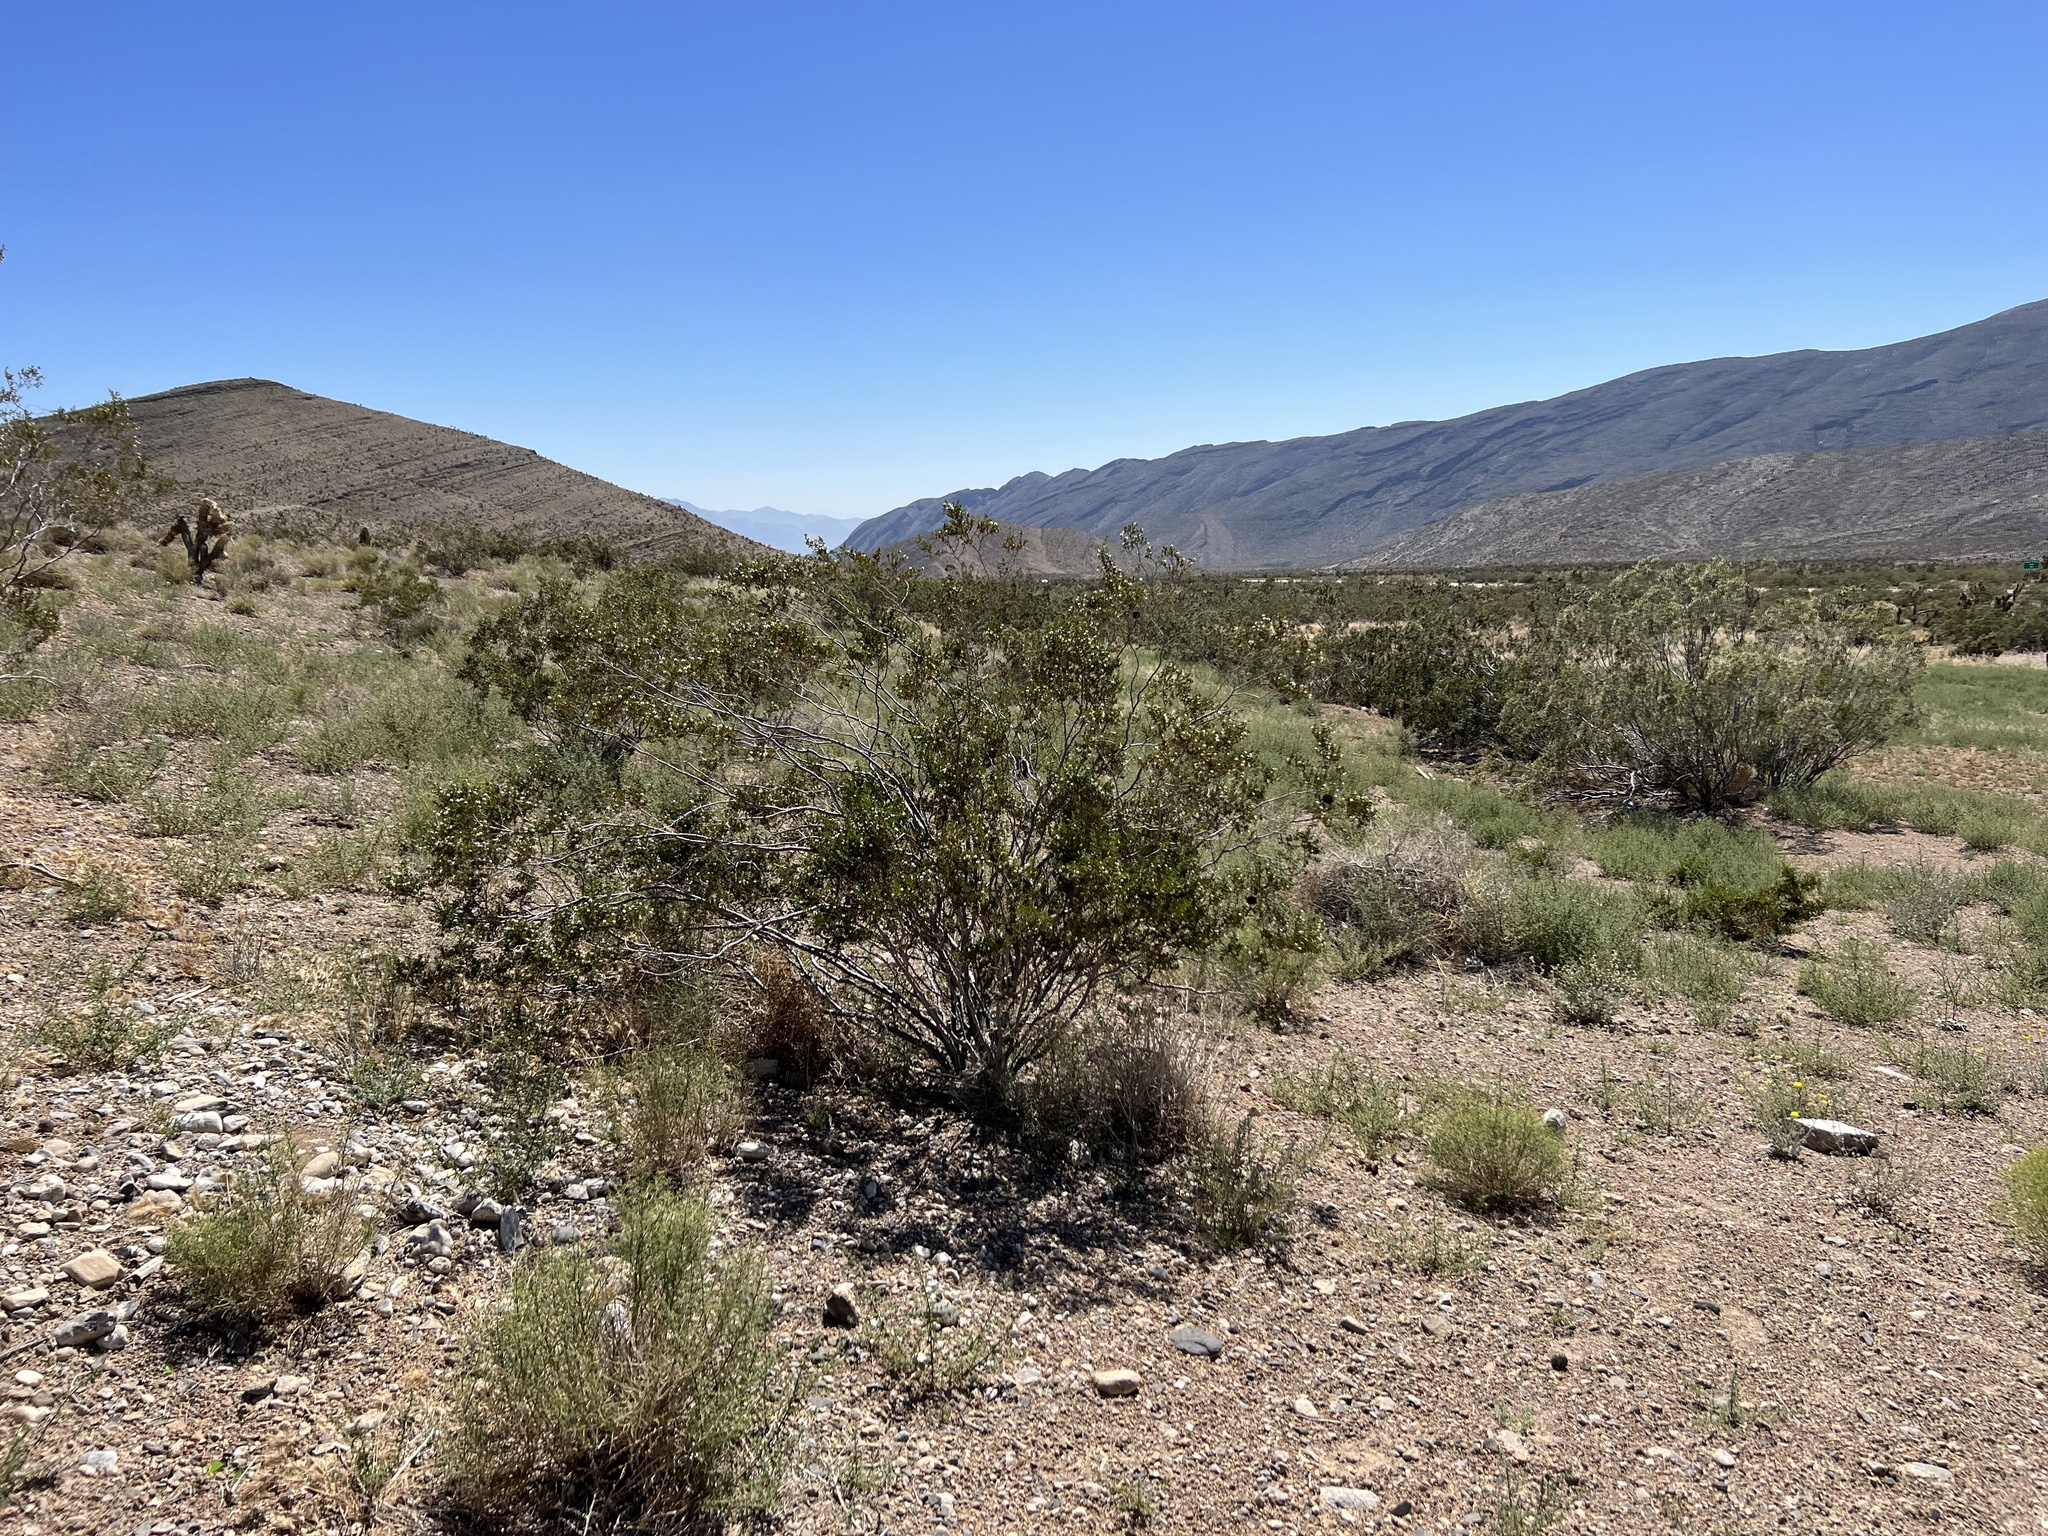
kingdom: Plantae
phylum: Tracheophyta
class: Magnoliopsida
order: Zygophyllales
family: Zygophyllaceae
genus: Larrea
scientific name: Larrea tridentata
